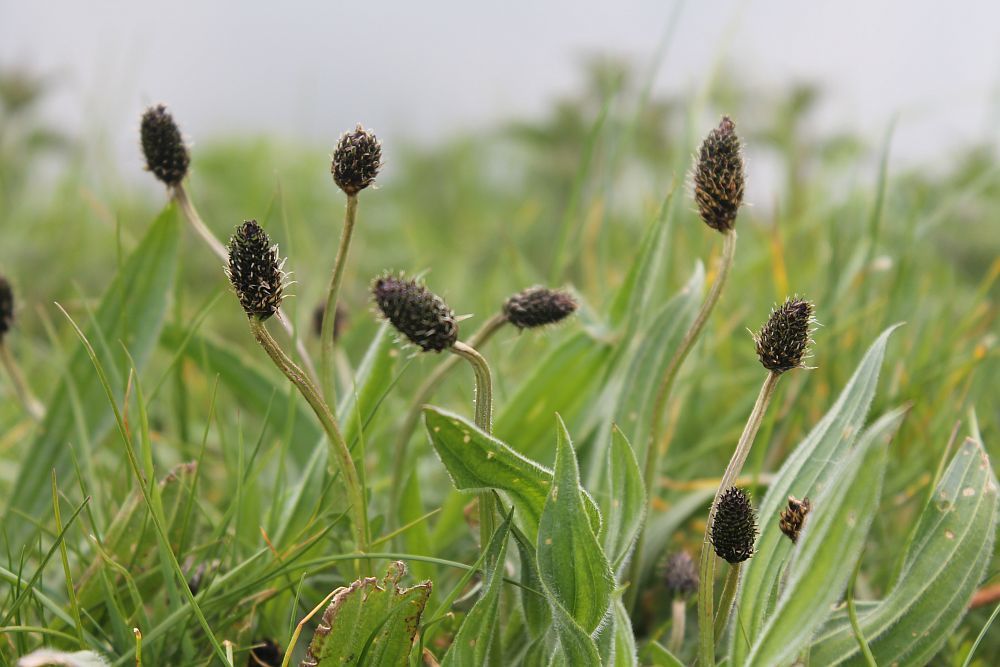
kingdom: Plantae
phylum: Tracheophyta
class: Magnoliopsida
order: Lamiales
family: Plantaginaceae
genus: Plantago
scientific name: Plantago lanceolata
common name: Ribwort plantain
